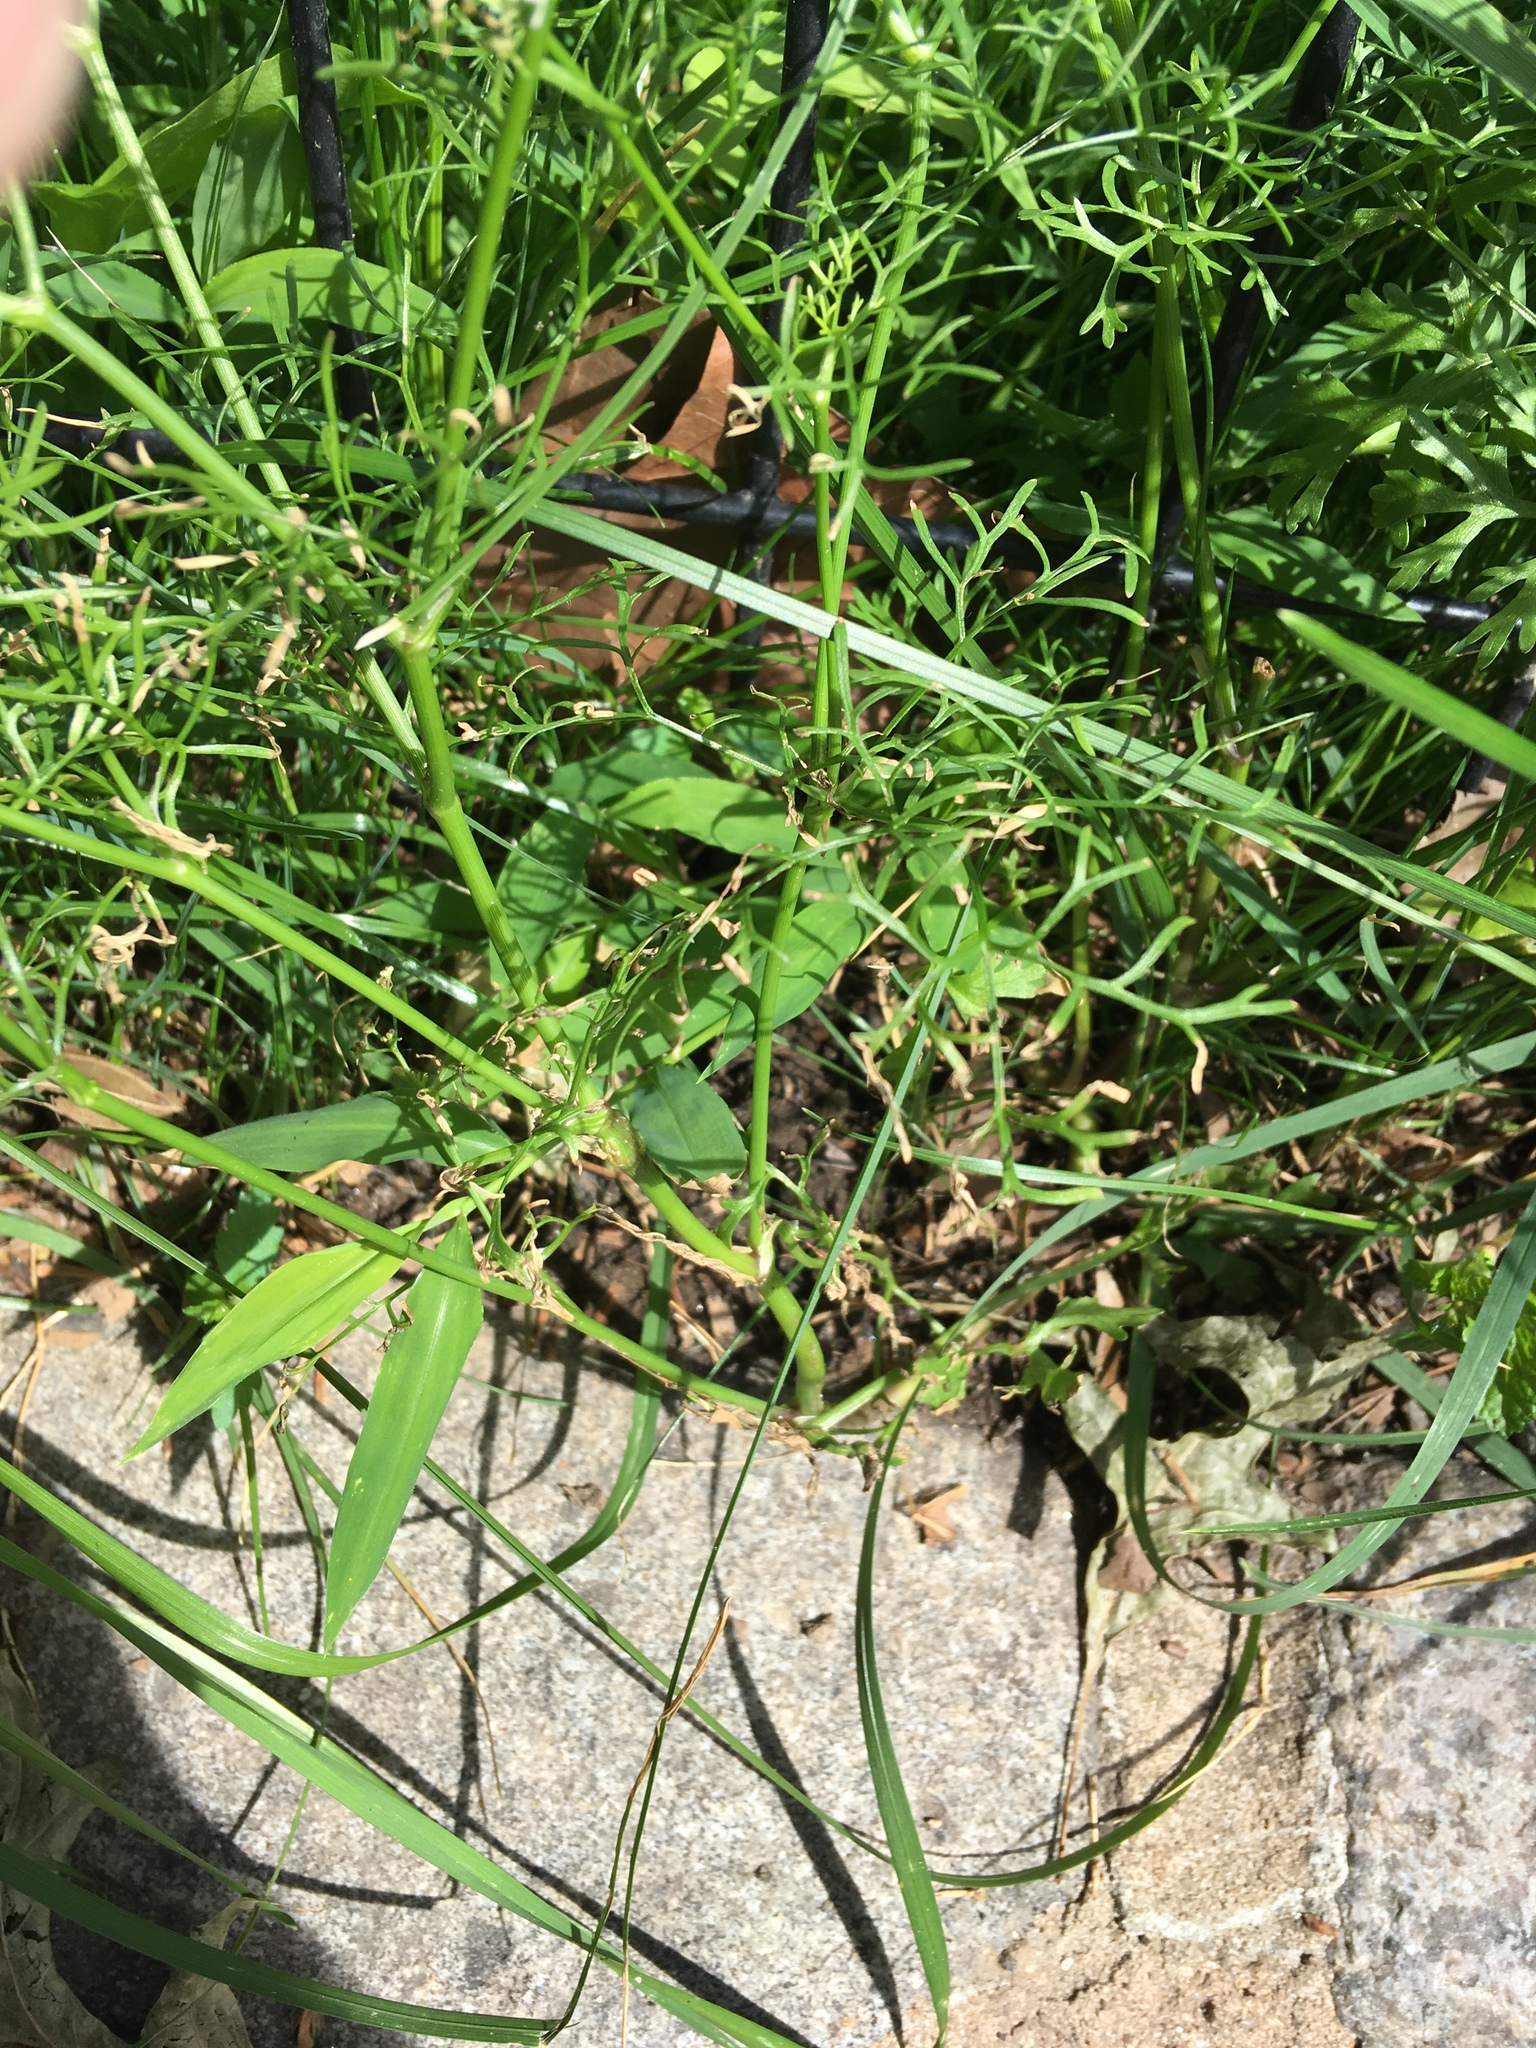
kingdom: Plantae
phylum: Tracheophyta
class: Magnoliopsida
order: Apiales
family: Apiaceae
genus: Coriandrum
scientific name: Coriandrum sativum
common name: Coriander
